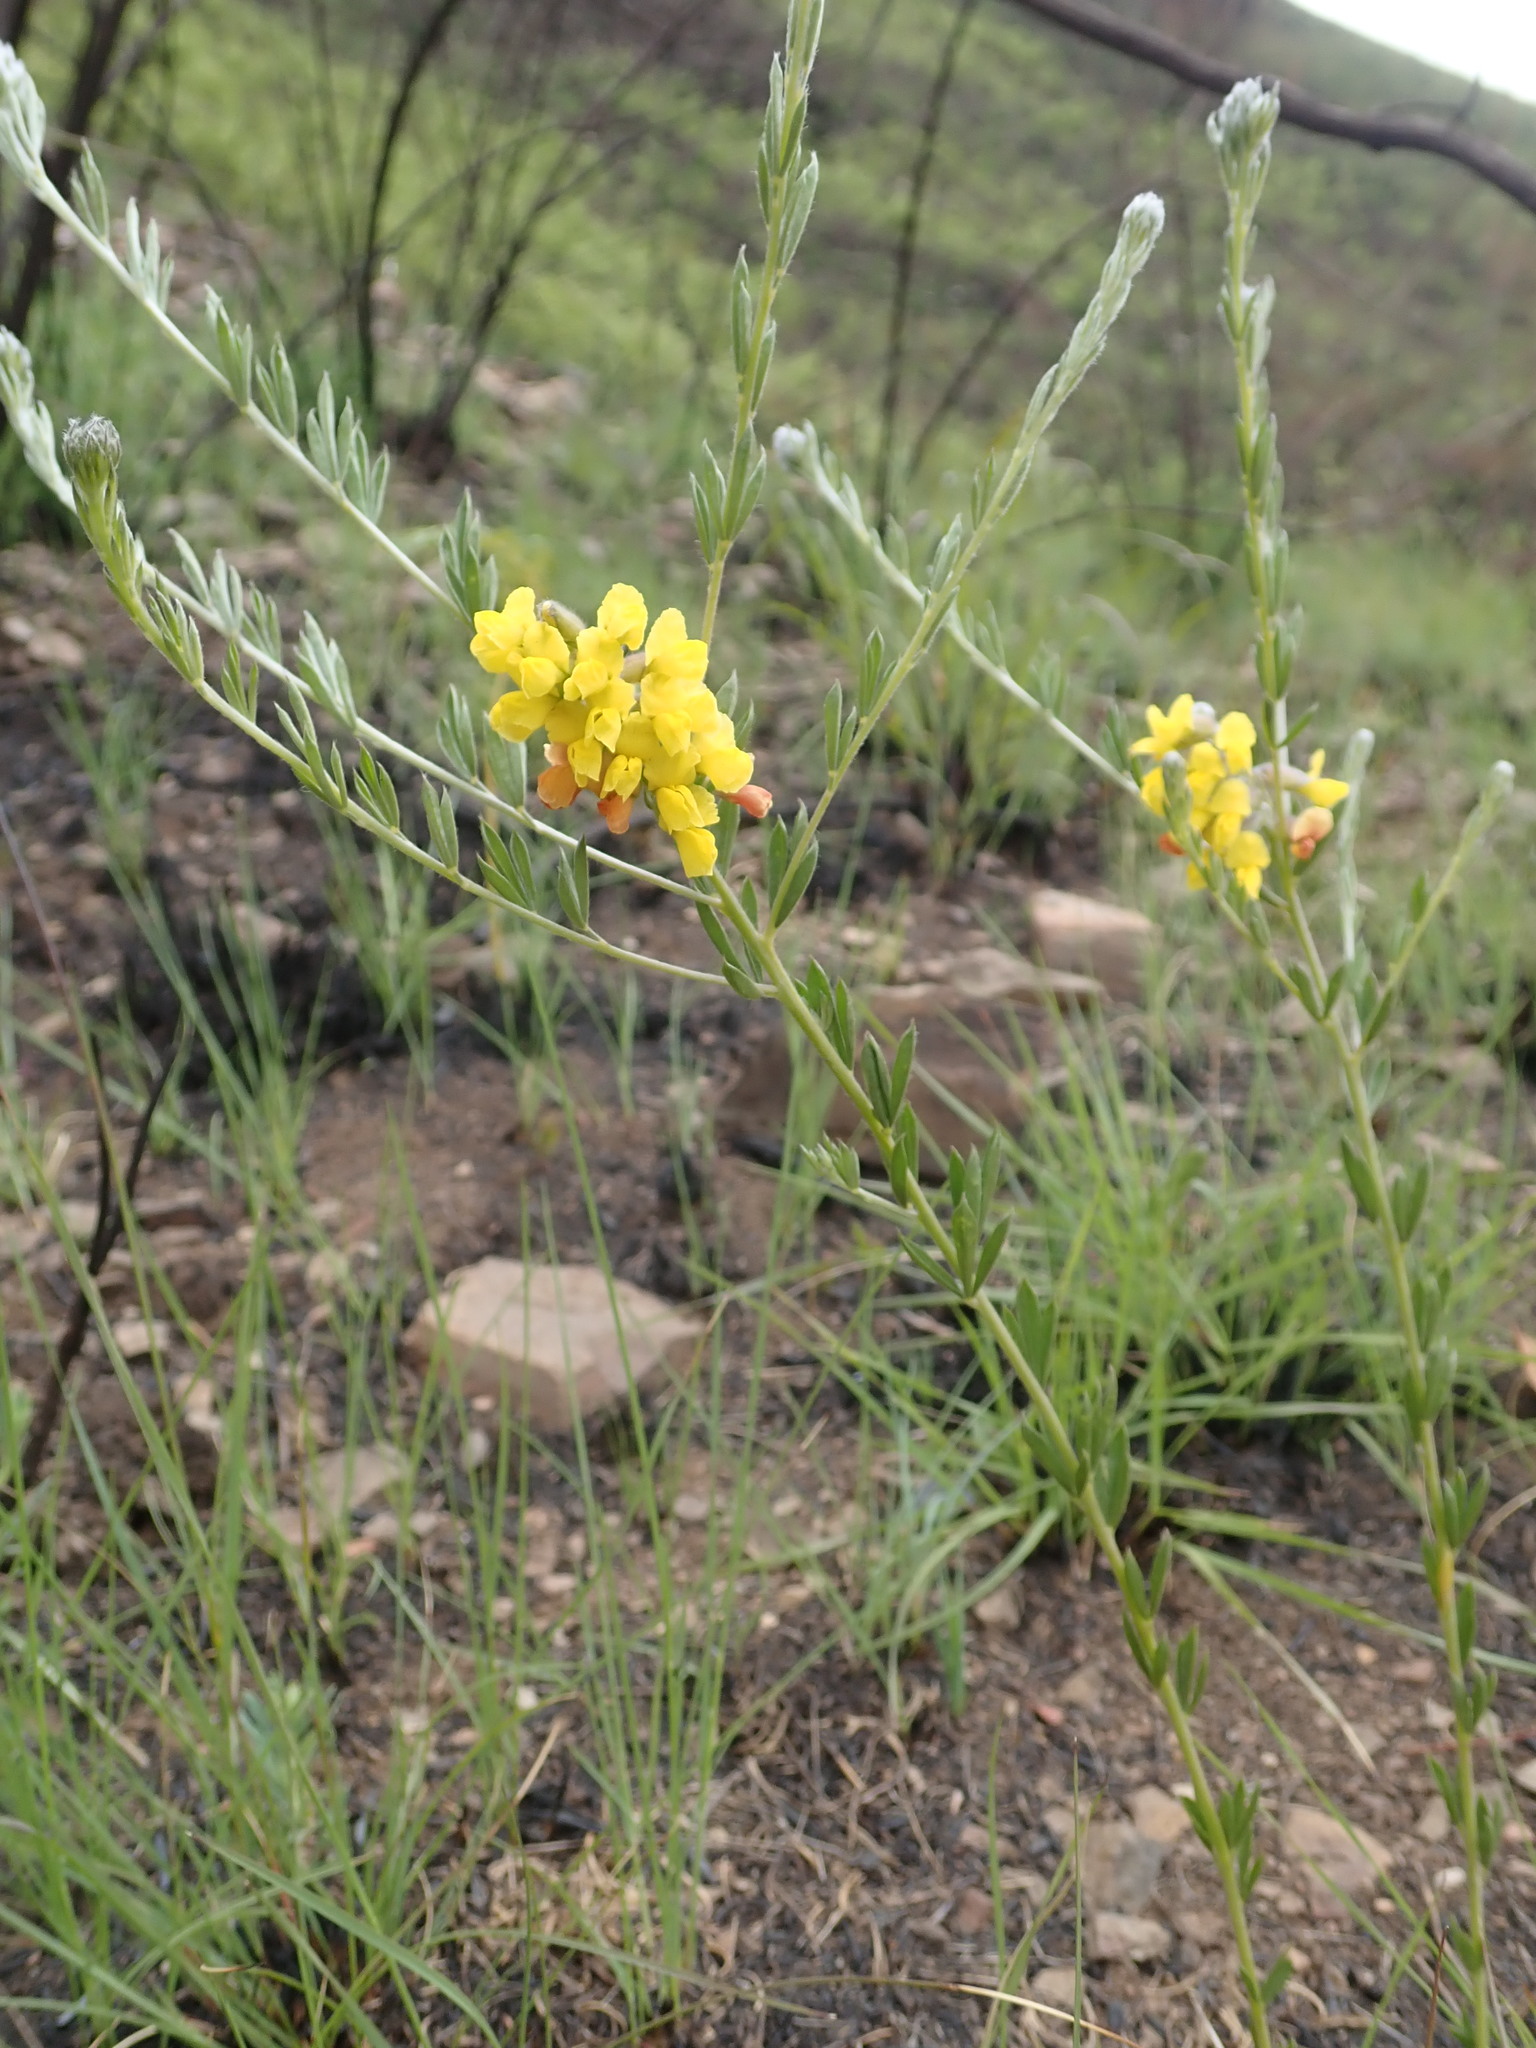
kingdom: Plantae
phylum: Tracheophyta
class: Magnoliopsida
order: Fabales
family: Fabaceae
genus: Pearsonia
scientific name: Pearsonia sessilifolia
